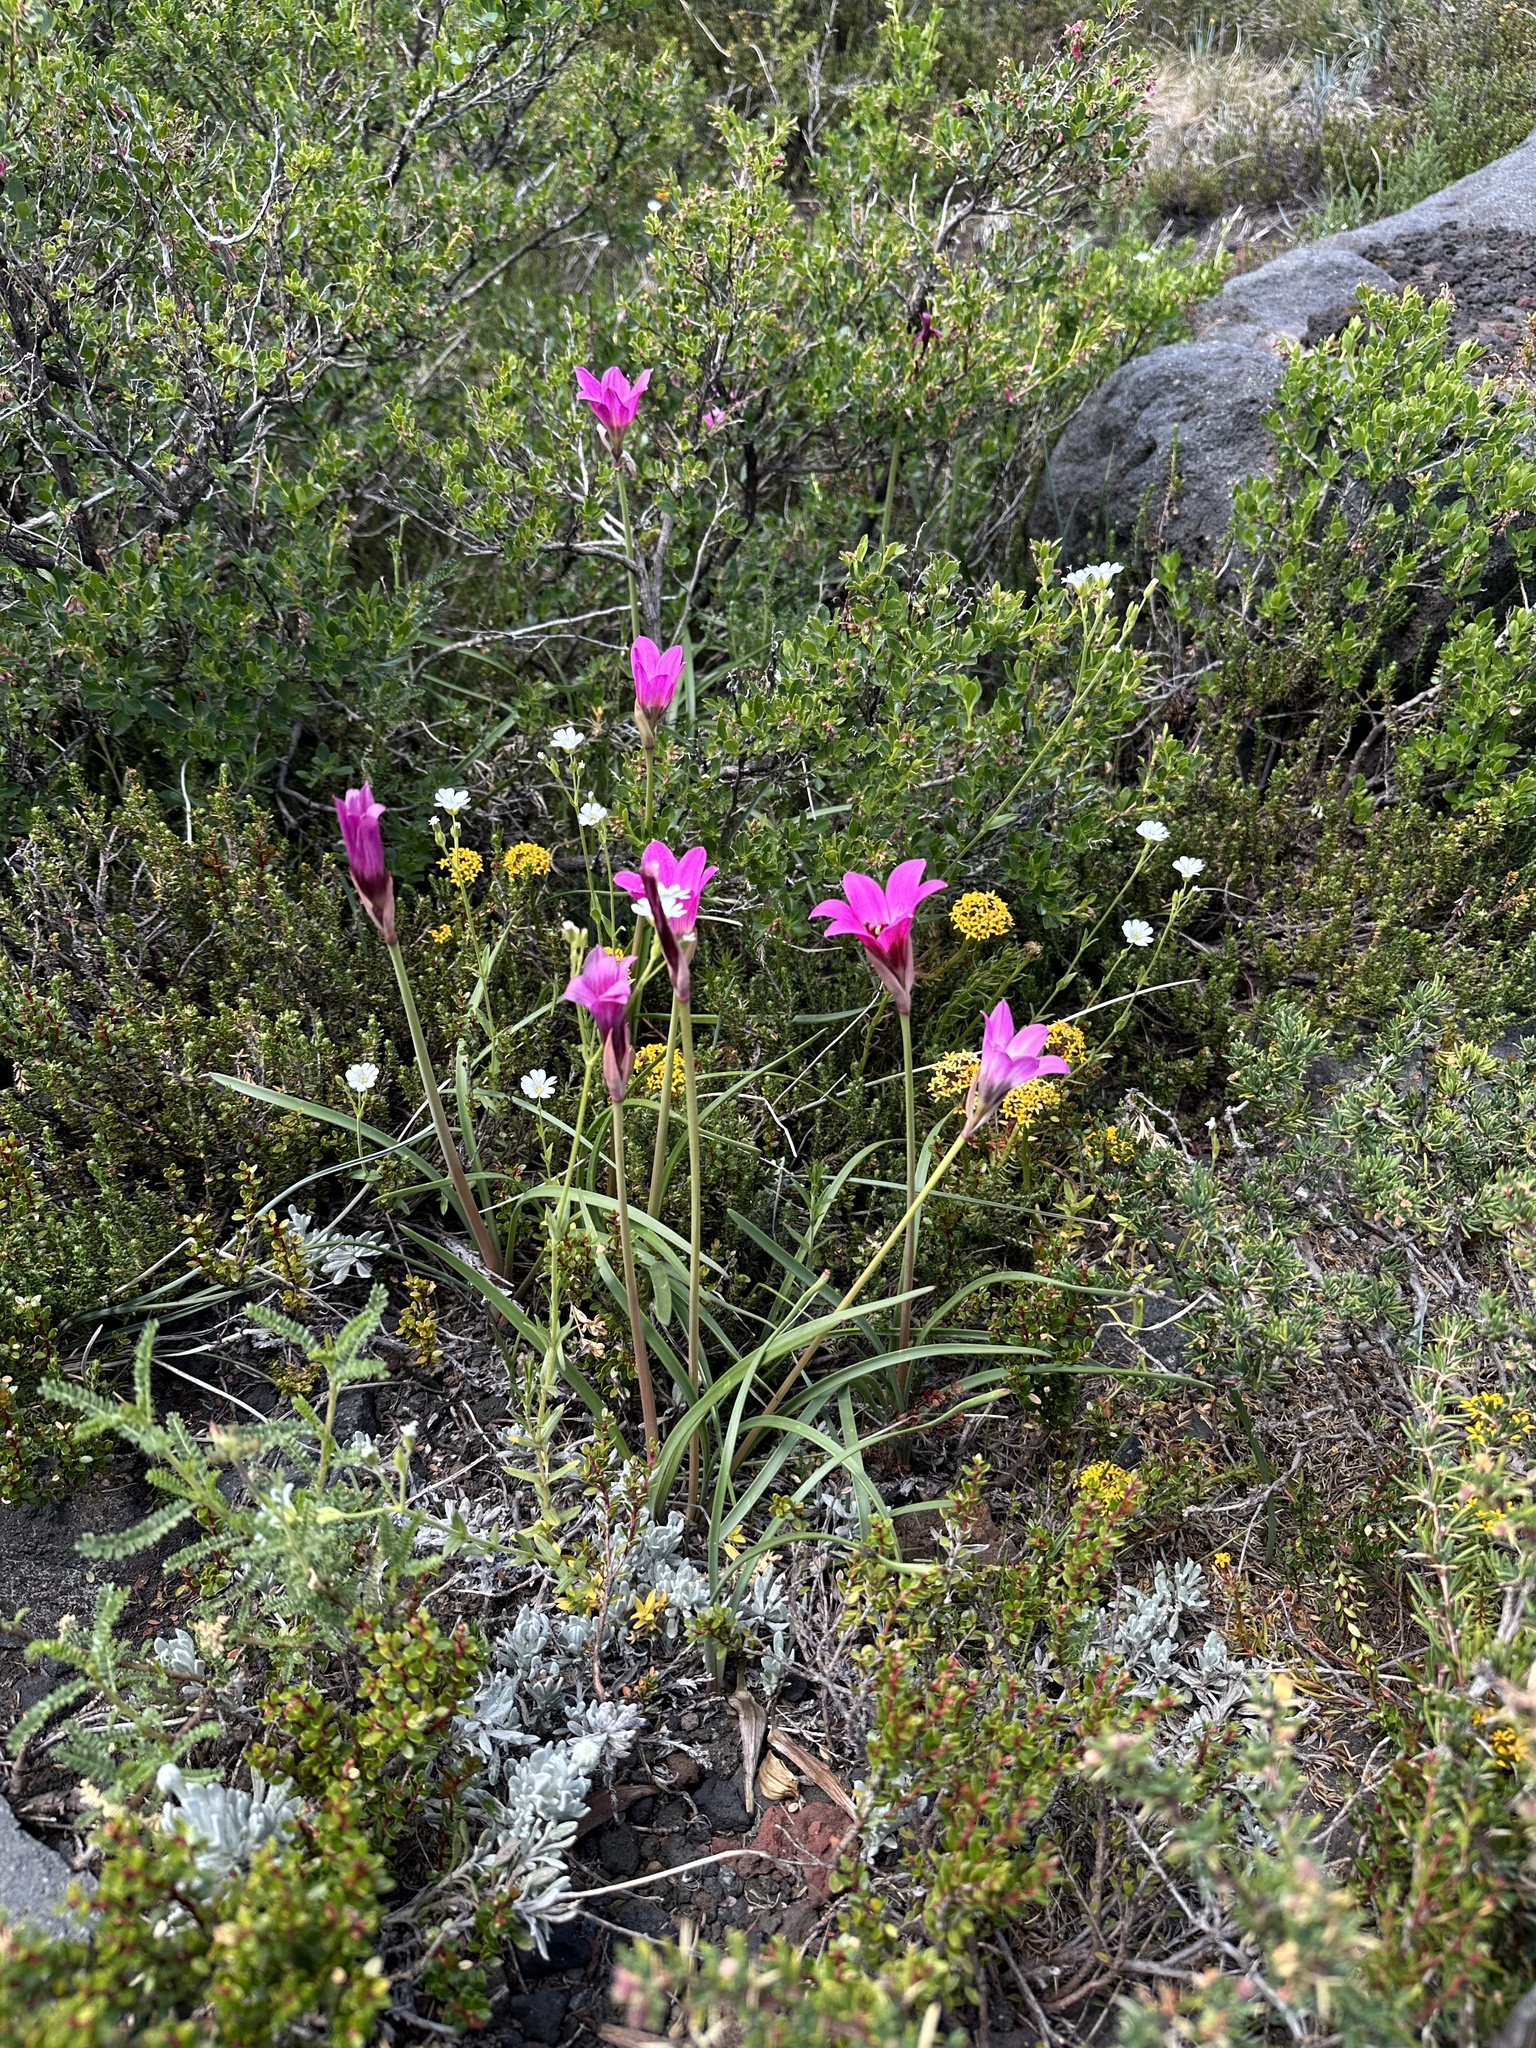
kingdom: Plantae
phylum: Tracheophyta
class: Liliopsida
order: Asparagales
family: Amaryllidaceae
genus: Rhodolirium
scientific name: Rhodolirium andicola
